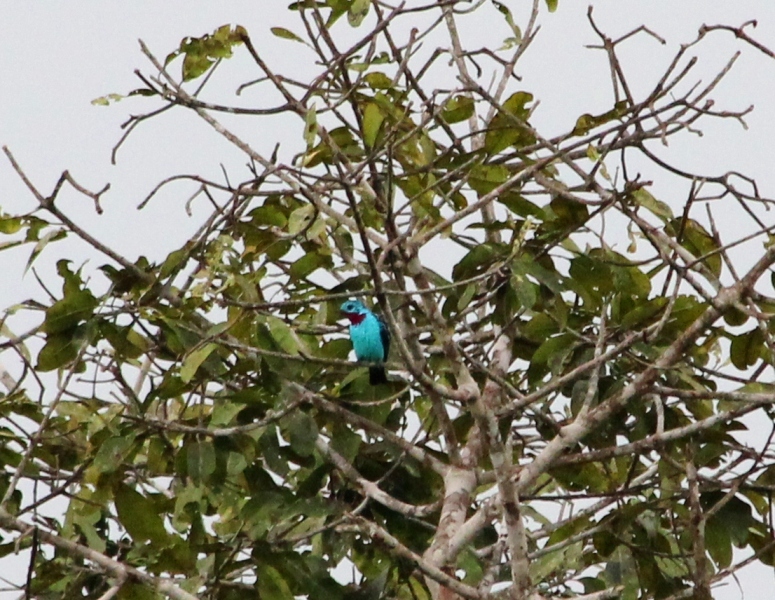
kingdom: Animalia
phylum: Chordata
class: Aves
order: Passeriformes
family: Cotingidae
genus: Cotinga
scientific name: Cotinga cayana
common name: Spangled cotinga
